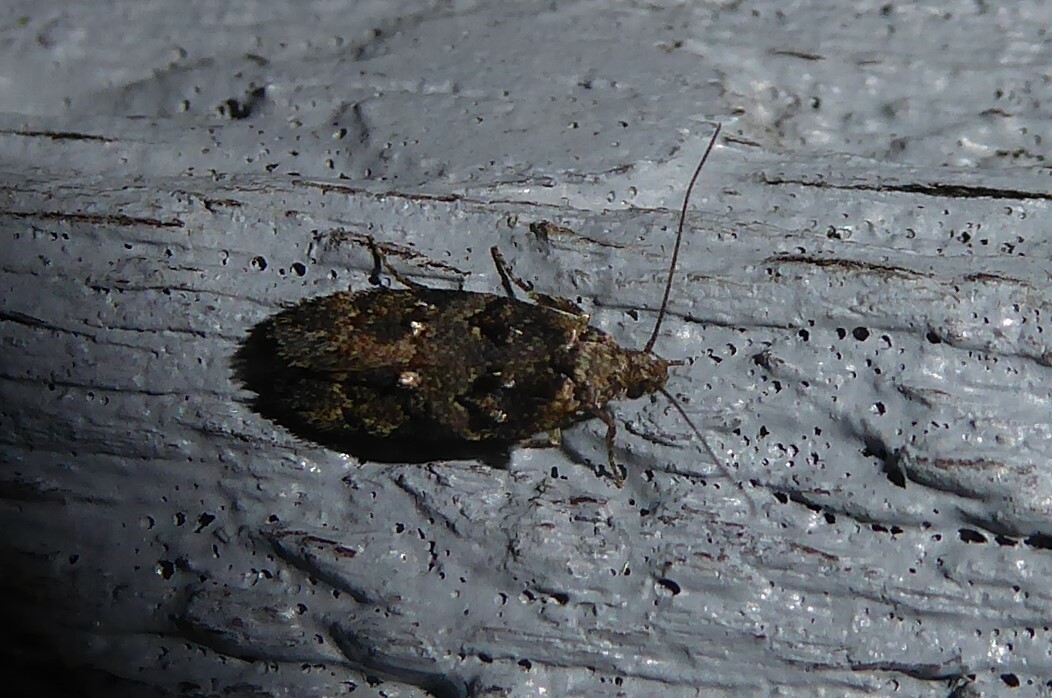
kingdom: Animalia
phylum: Arthropoda
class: Insecta
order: Lepidoptera
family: Oecophoridae
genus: Trachypepla
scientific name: Trachypepla anastrella
